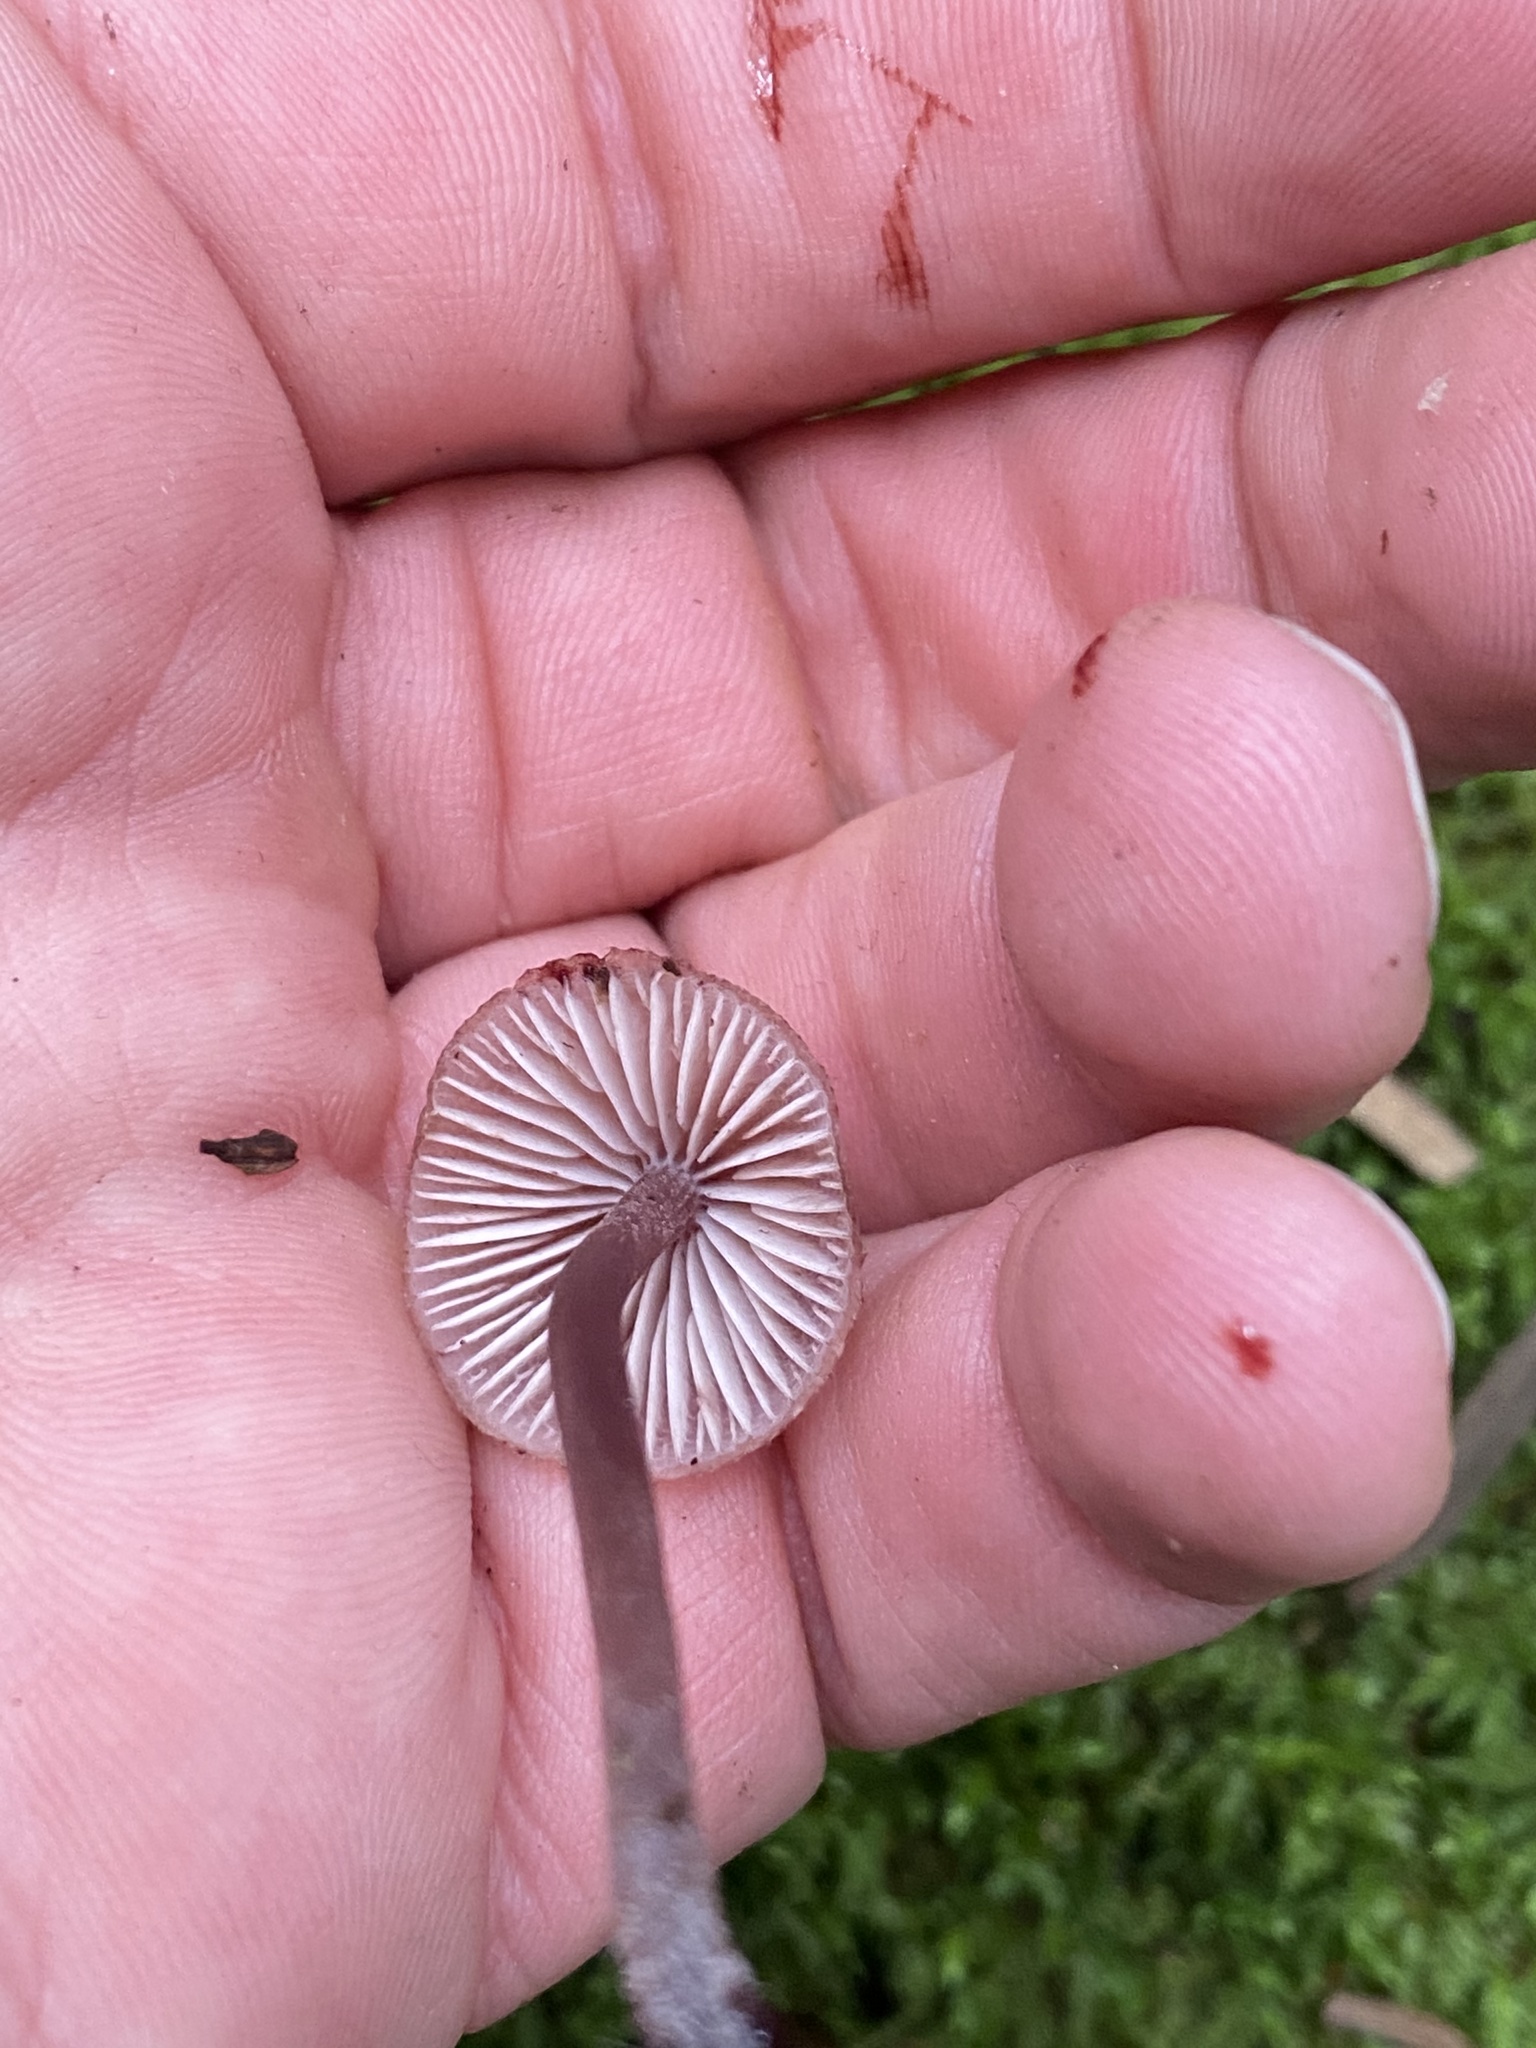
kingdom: Fungi
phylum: Basidiomycota
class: Agaricomycetes
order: Agaricales
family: Mycenaceae
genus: Mycena
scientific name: Mycena haematopus
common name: Burgundydrop bonnet
